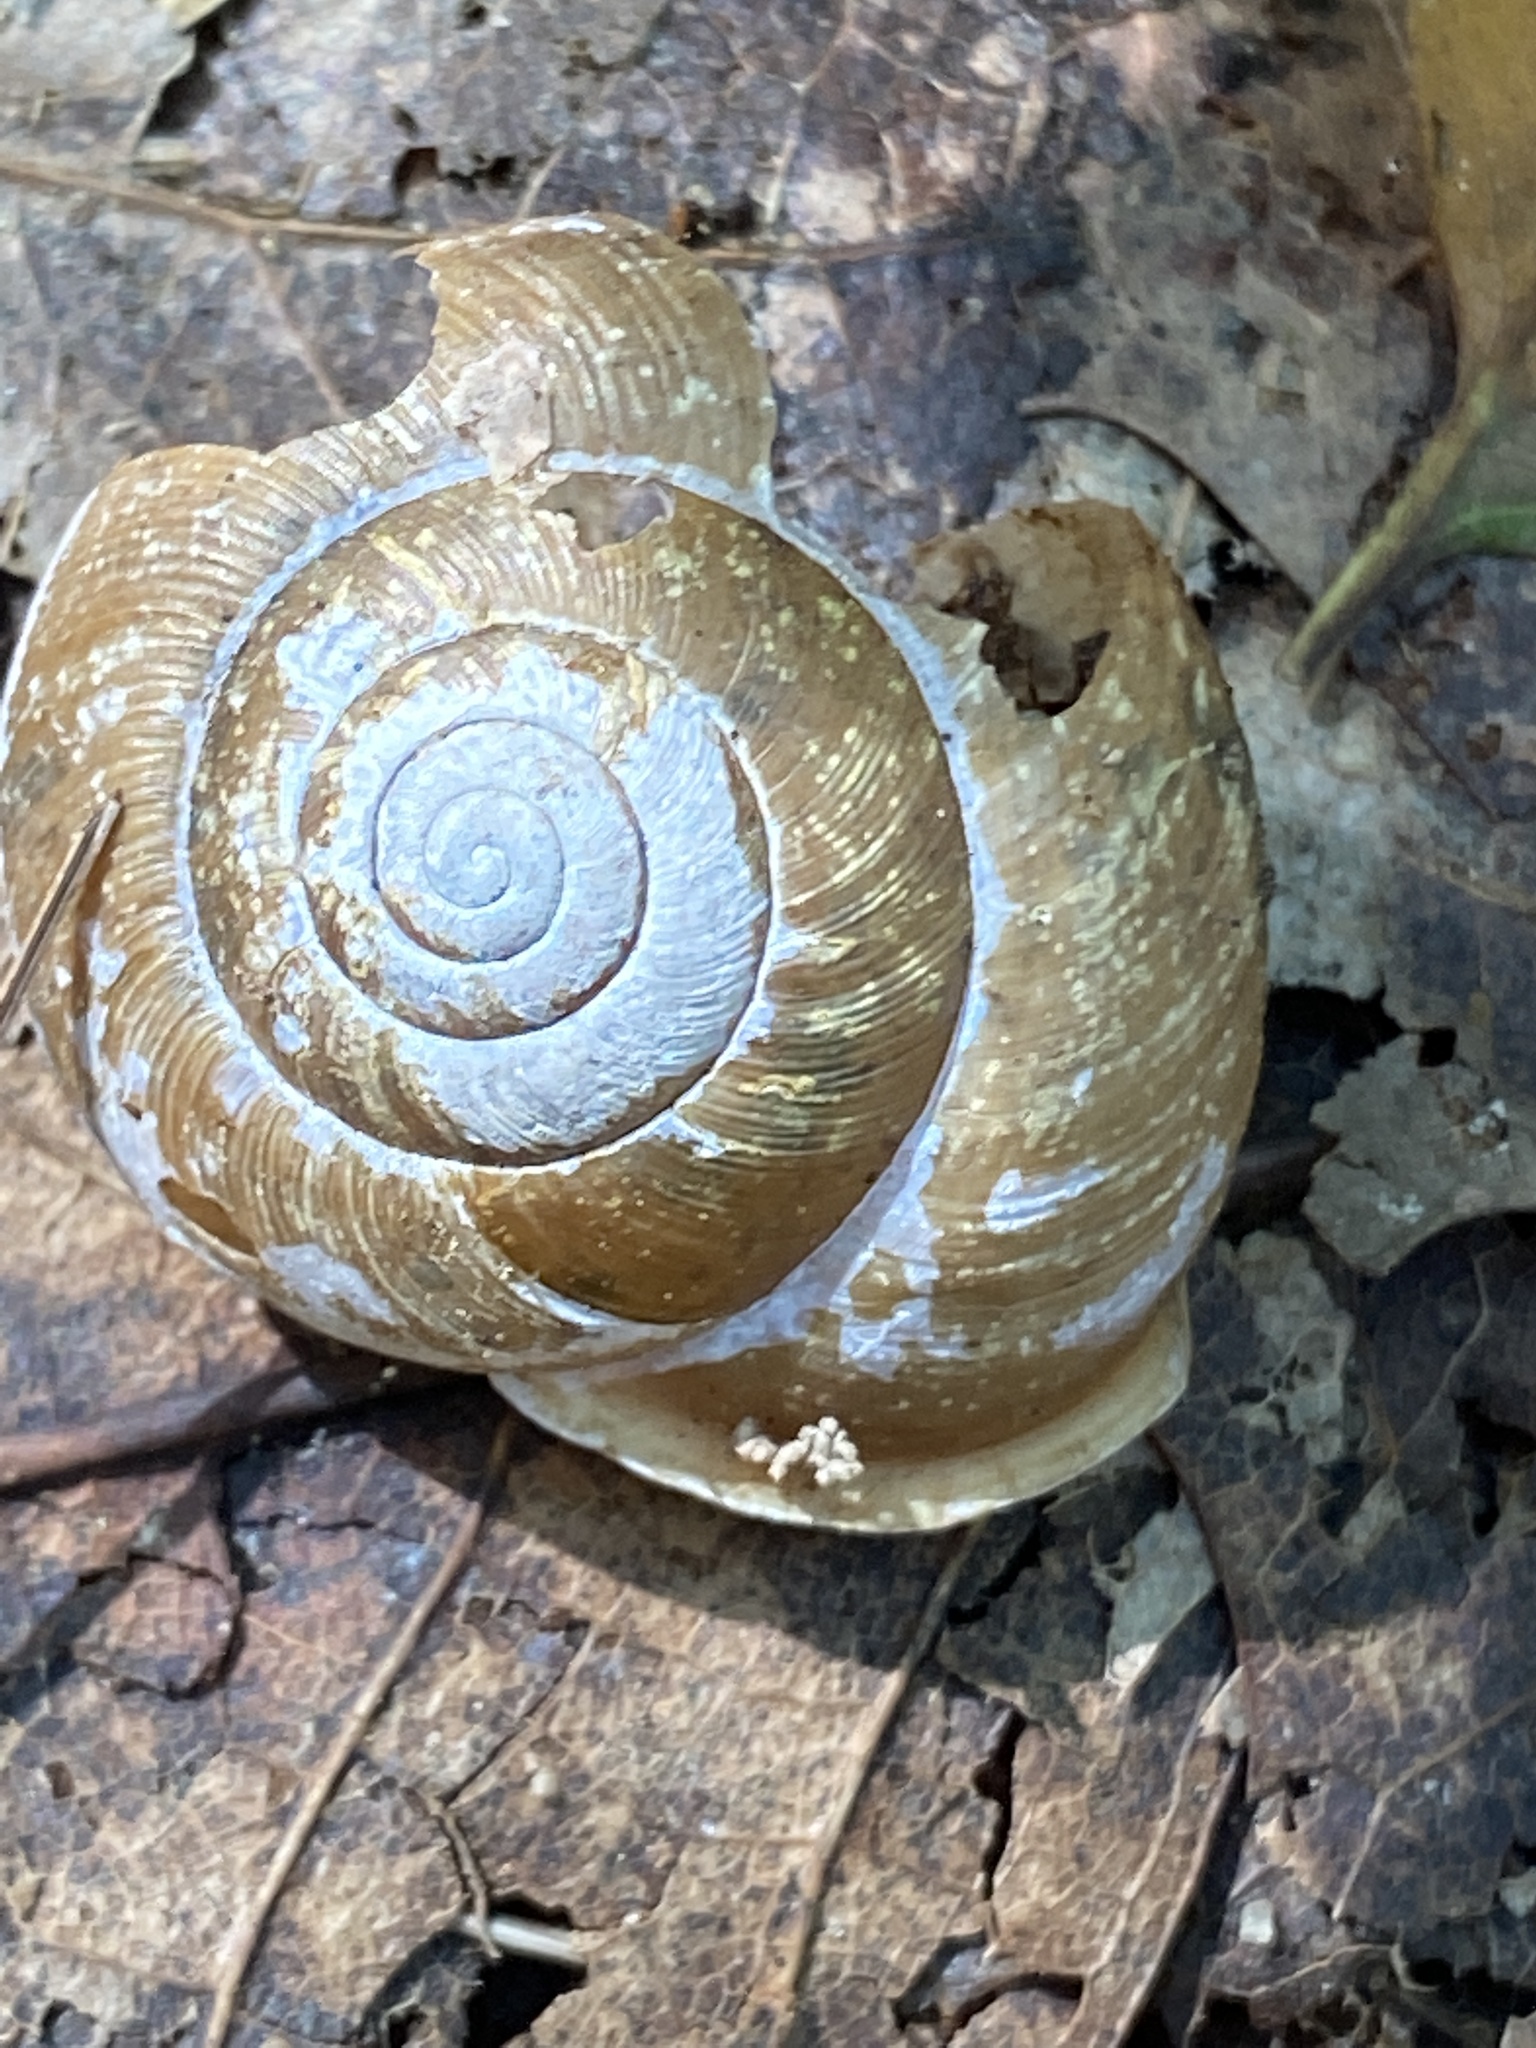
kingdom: Animalia
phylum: Mollusca
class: Gastropoda
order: Stylommatophora
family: Polygyridae
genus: Neohelix
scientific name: Neohelix albolabris
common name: Eastern whitelip
